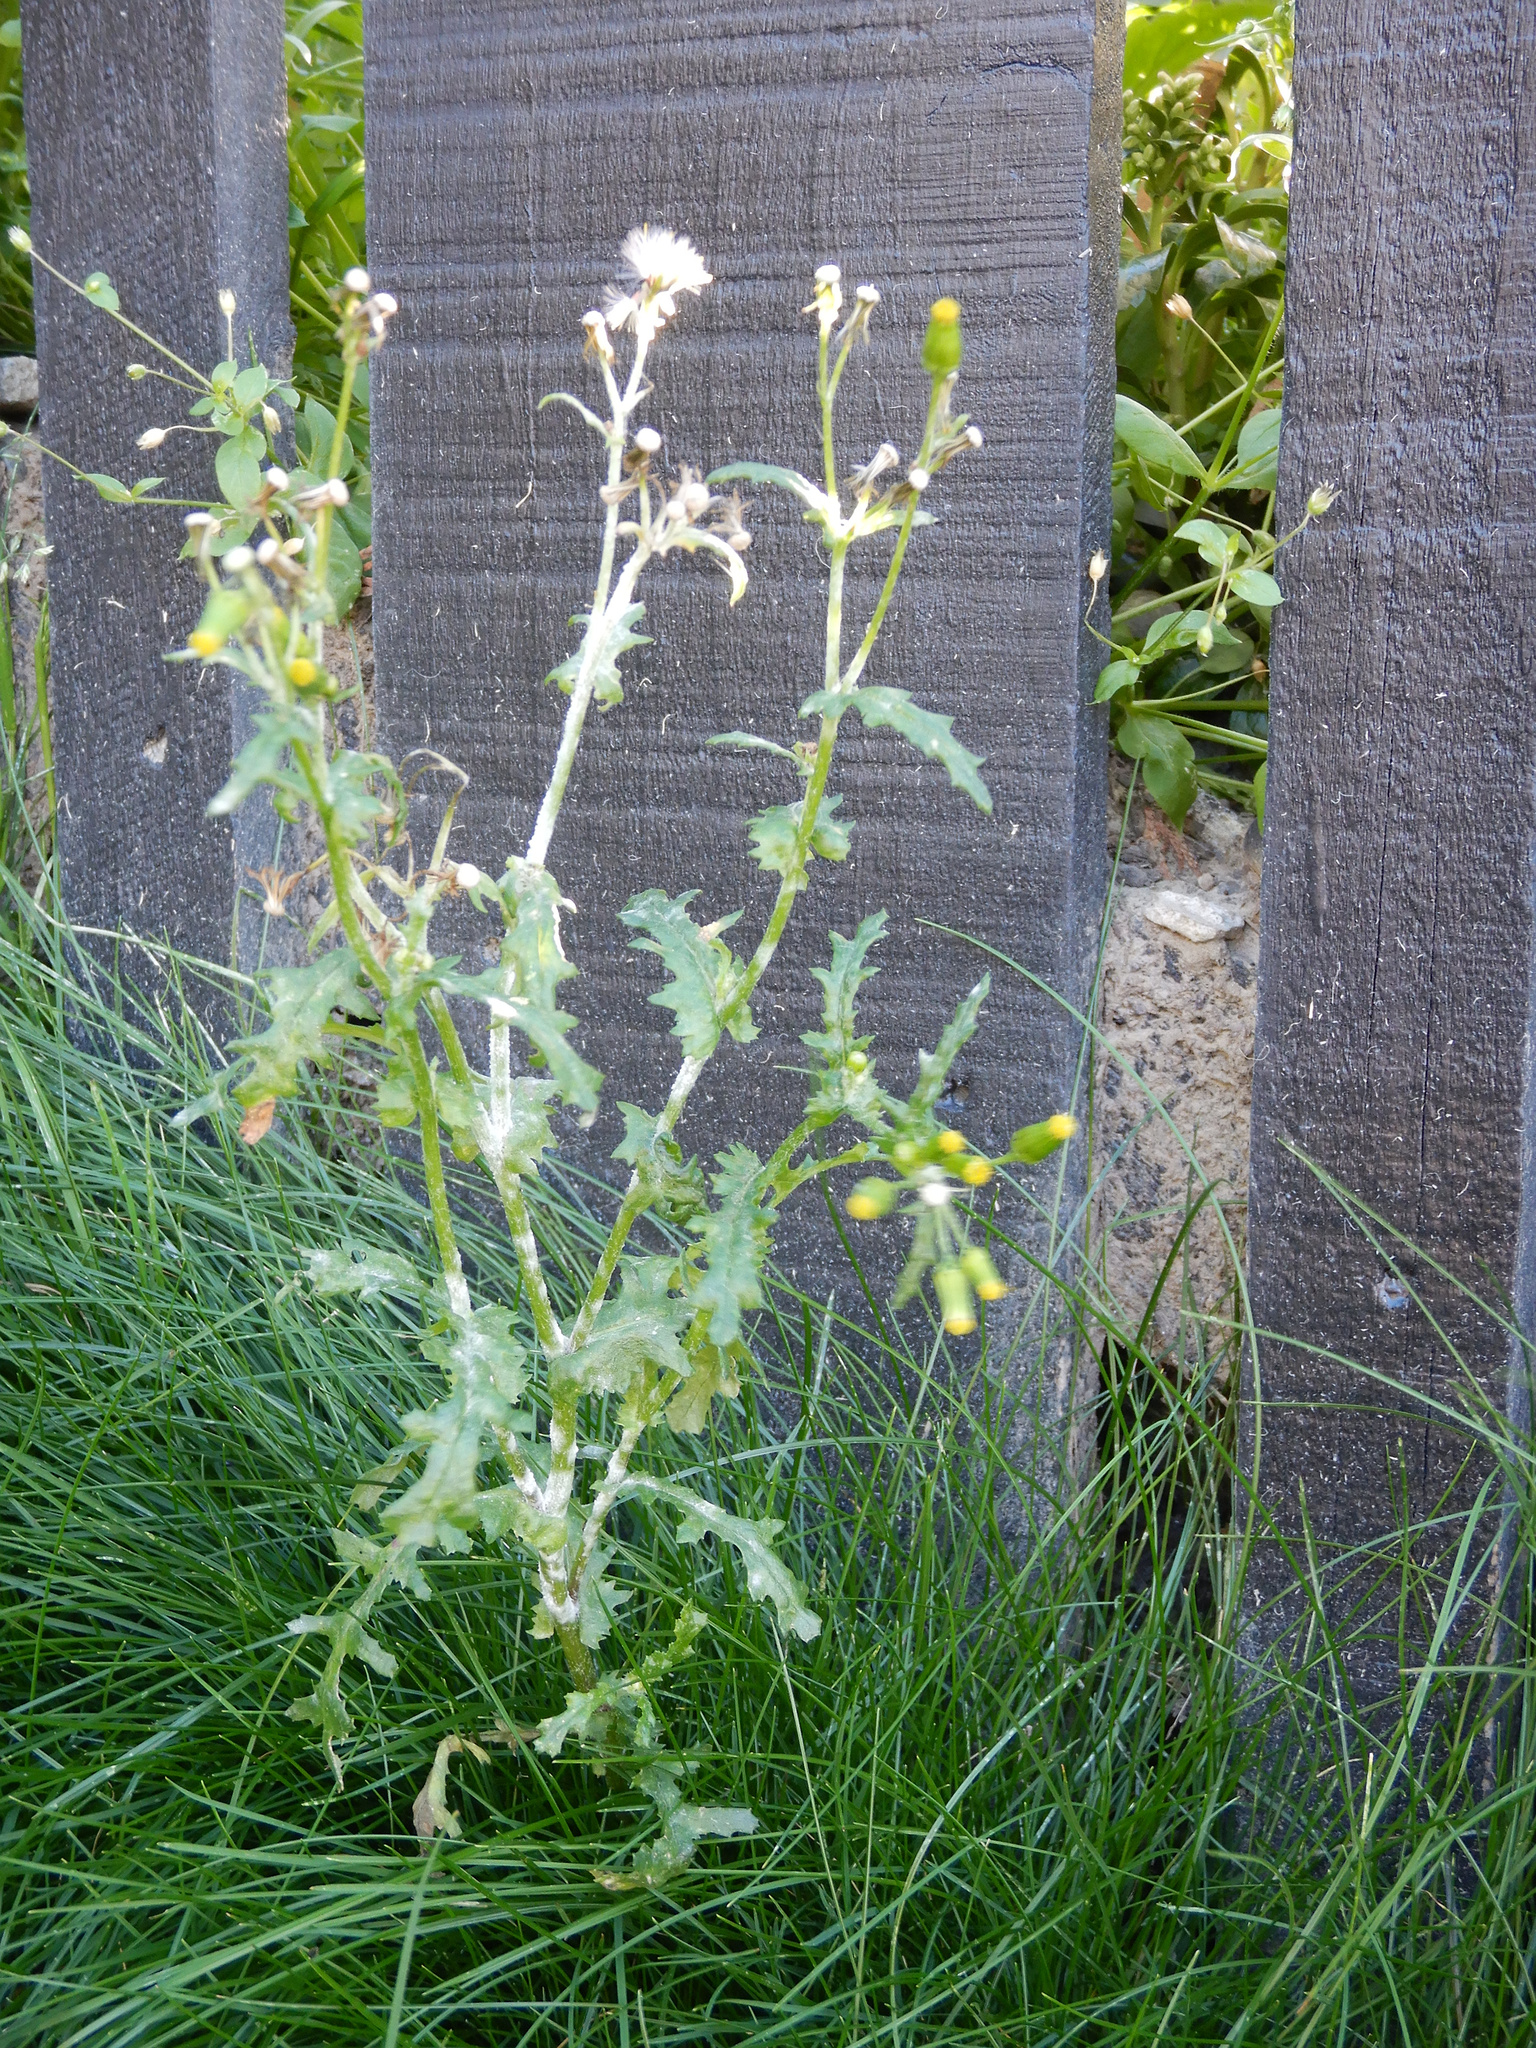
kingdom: Plantae
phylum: Tracheophyta
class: Magnoliopsida
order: Asterales
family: Asteraceae
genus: Senecio
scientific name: Senecio vulgaris
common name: Old-man-in-the-spring
